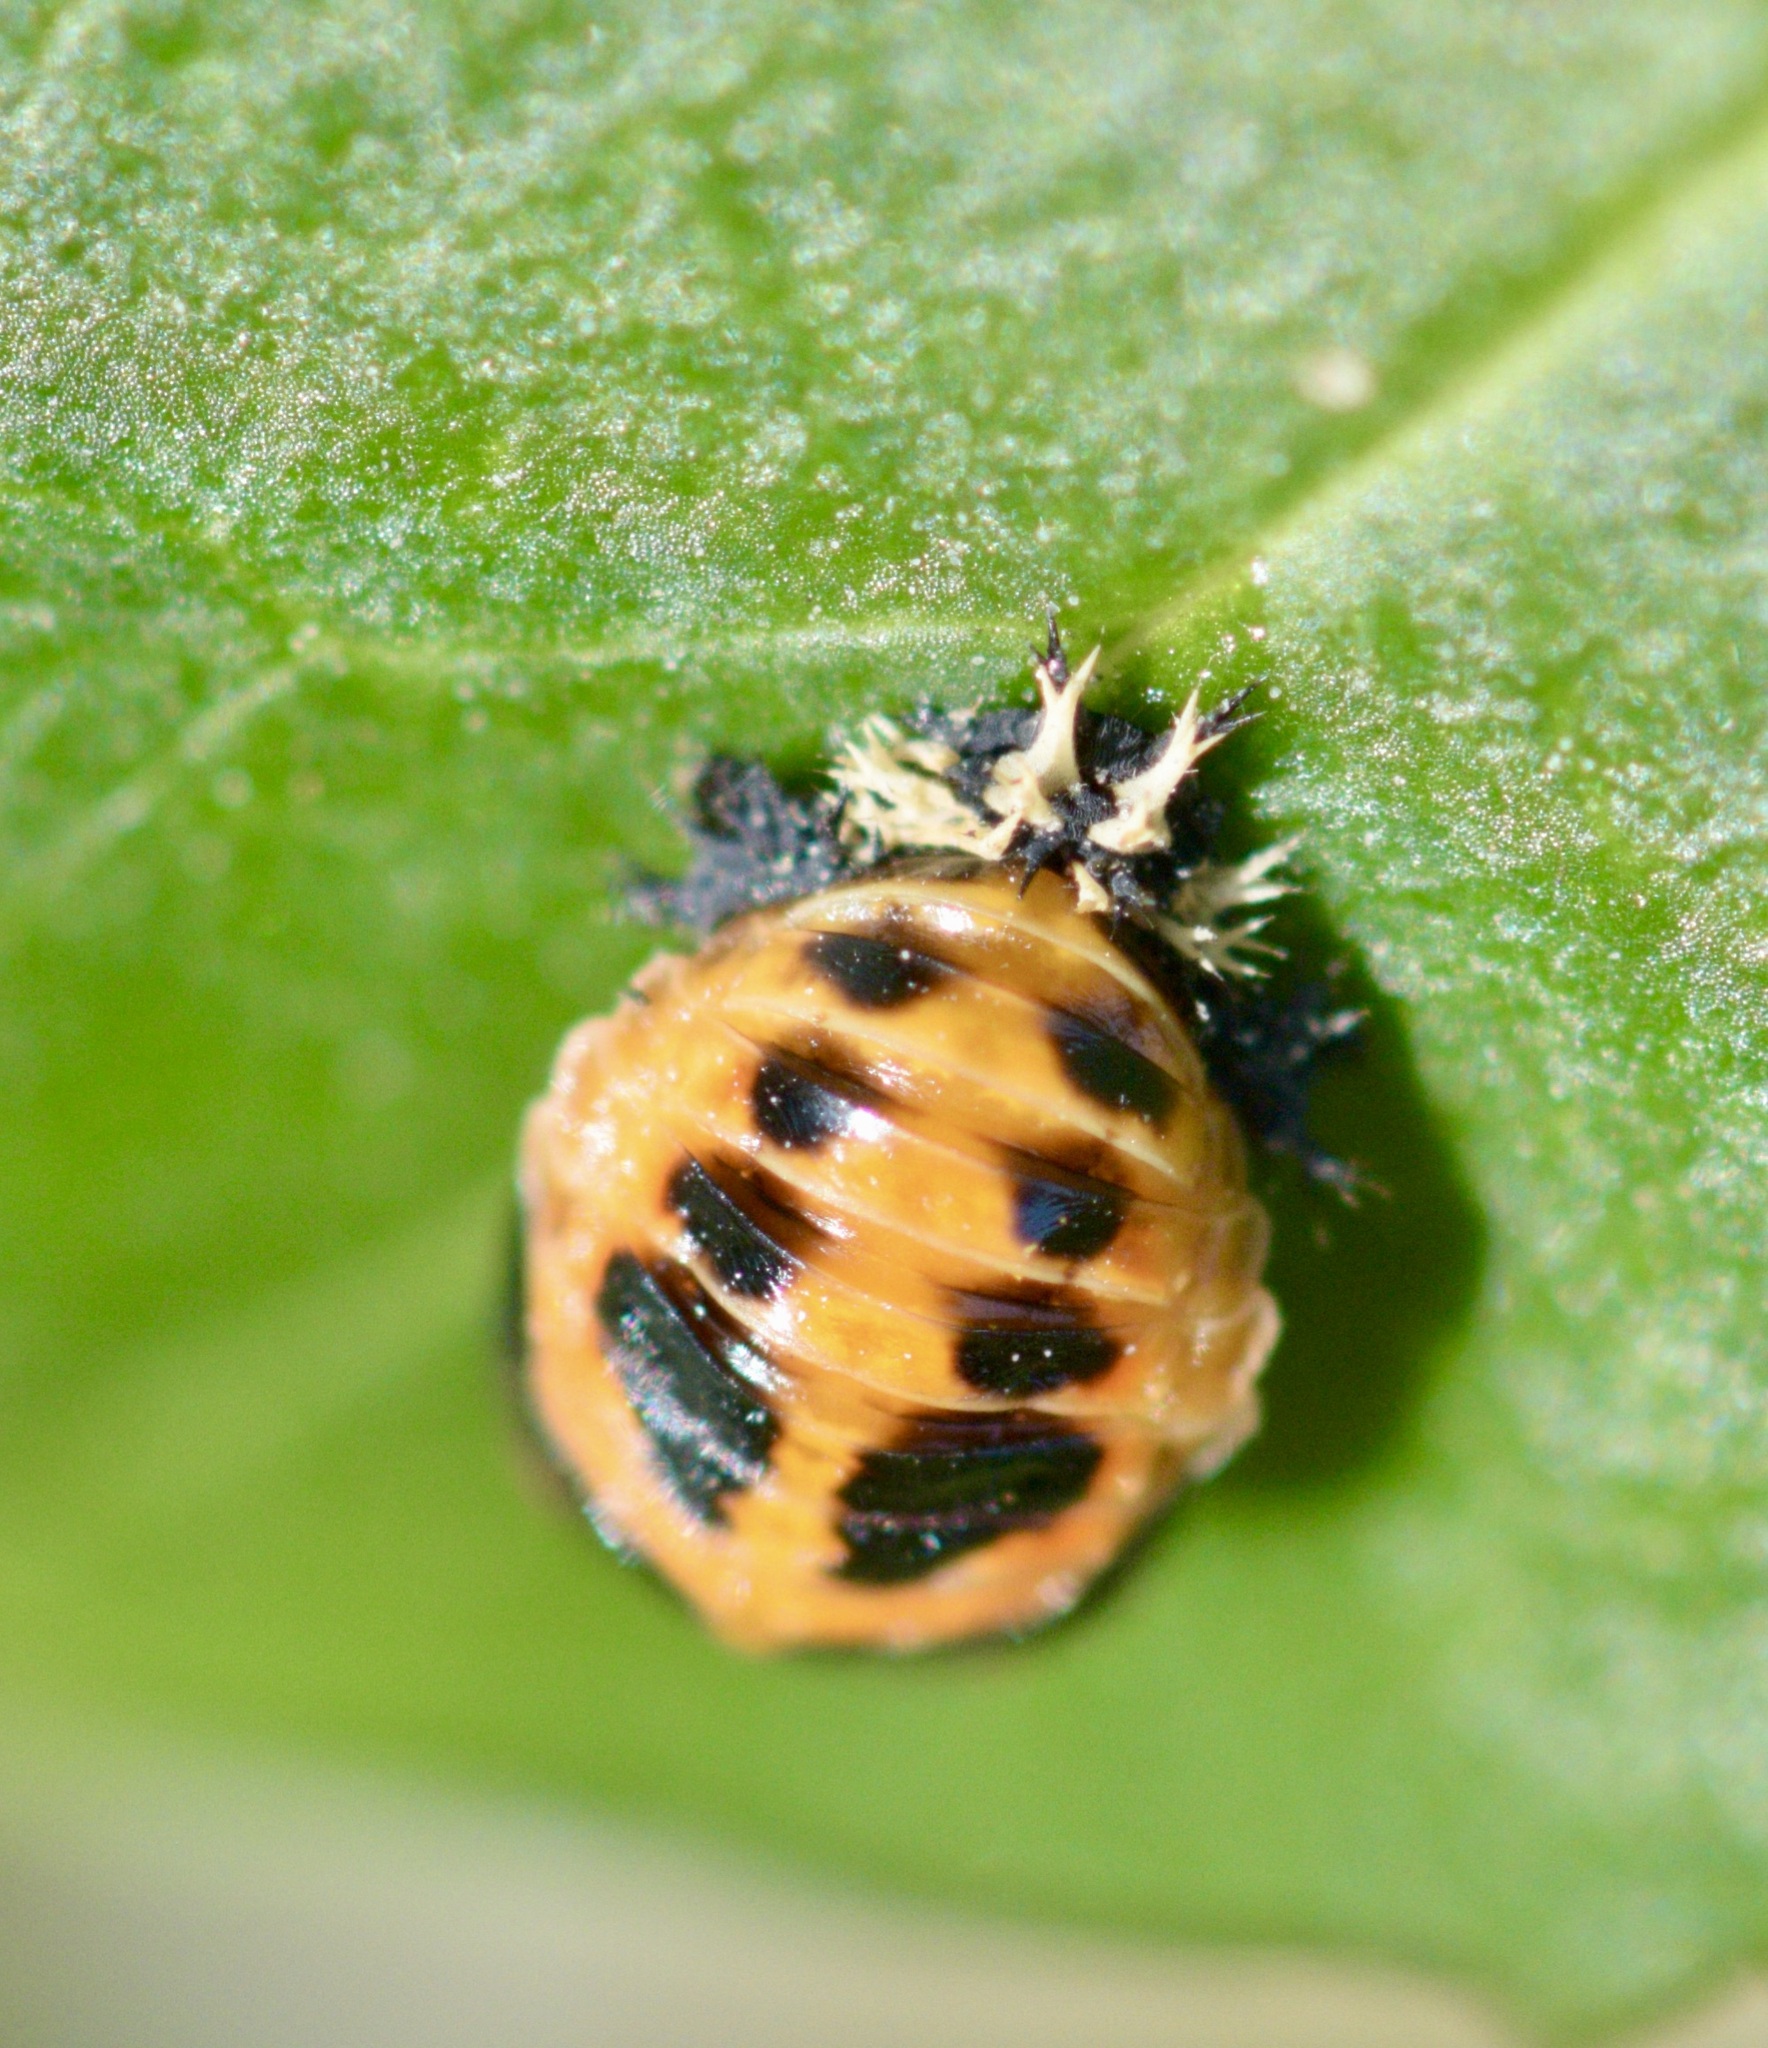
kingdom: Animalia
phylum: Arthropoda
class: Insecta
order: Coleoptera
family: Coccinellidae
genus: Harmonia
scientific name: Harmonia axyridis
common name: Harlequin ladybird
